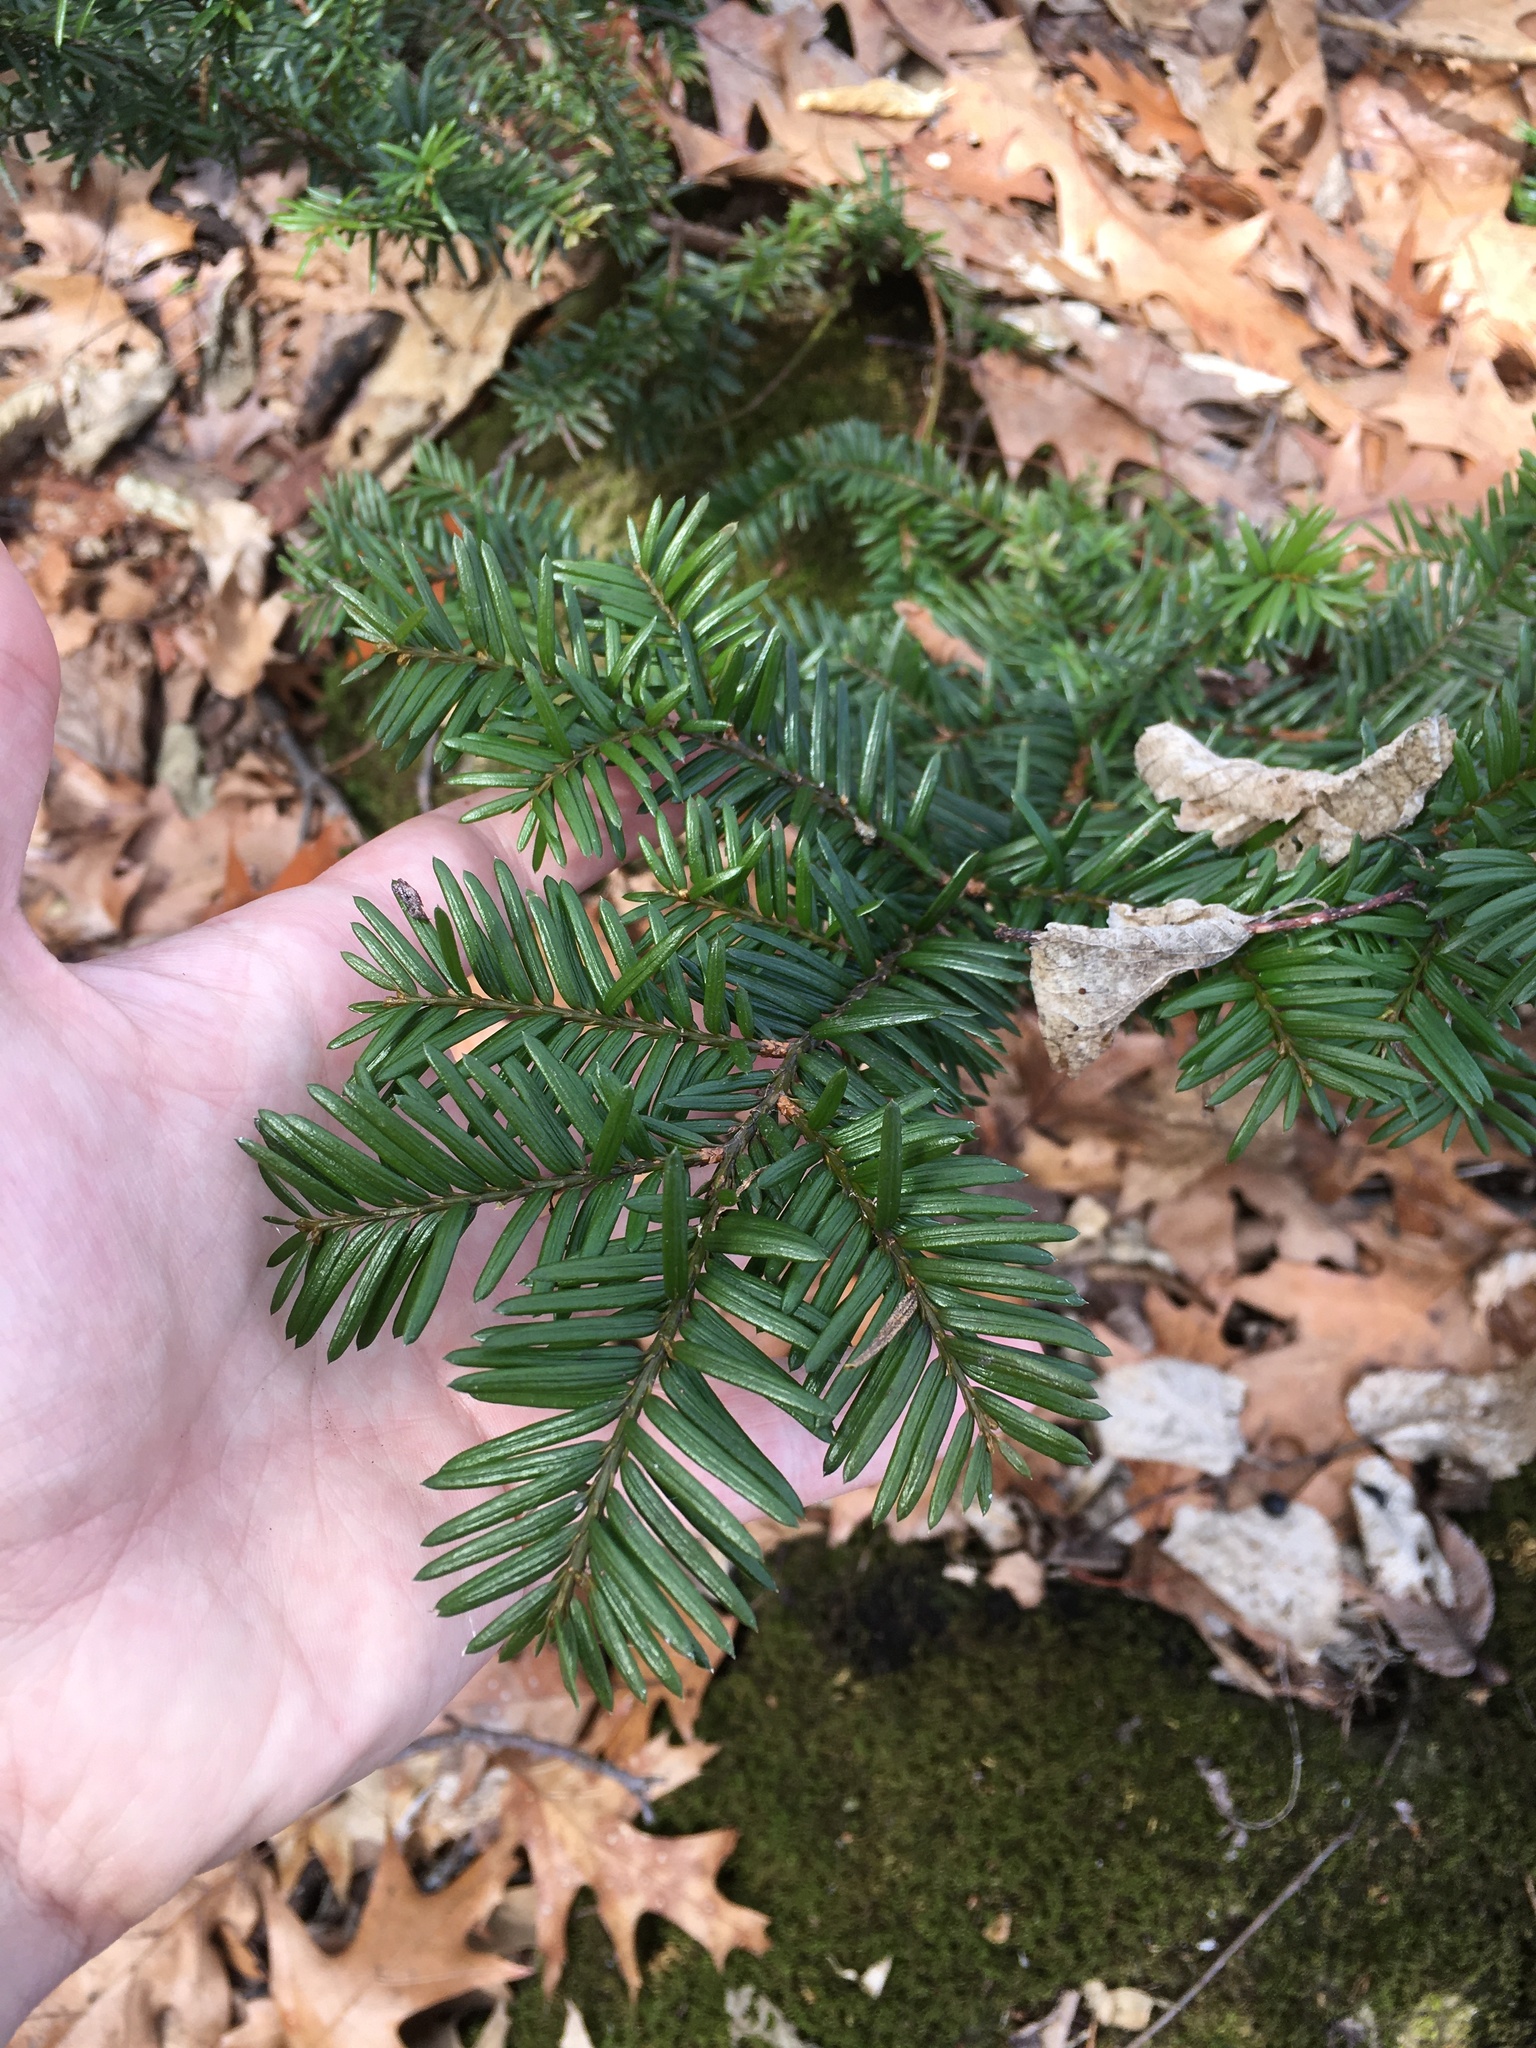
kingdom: Plantae
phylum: Tracheophyta
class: Pinopsida
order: Pinales
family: Taxaceae
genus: Taxus
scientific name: Taxus canadensis
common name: American yew
